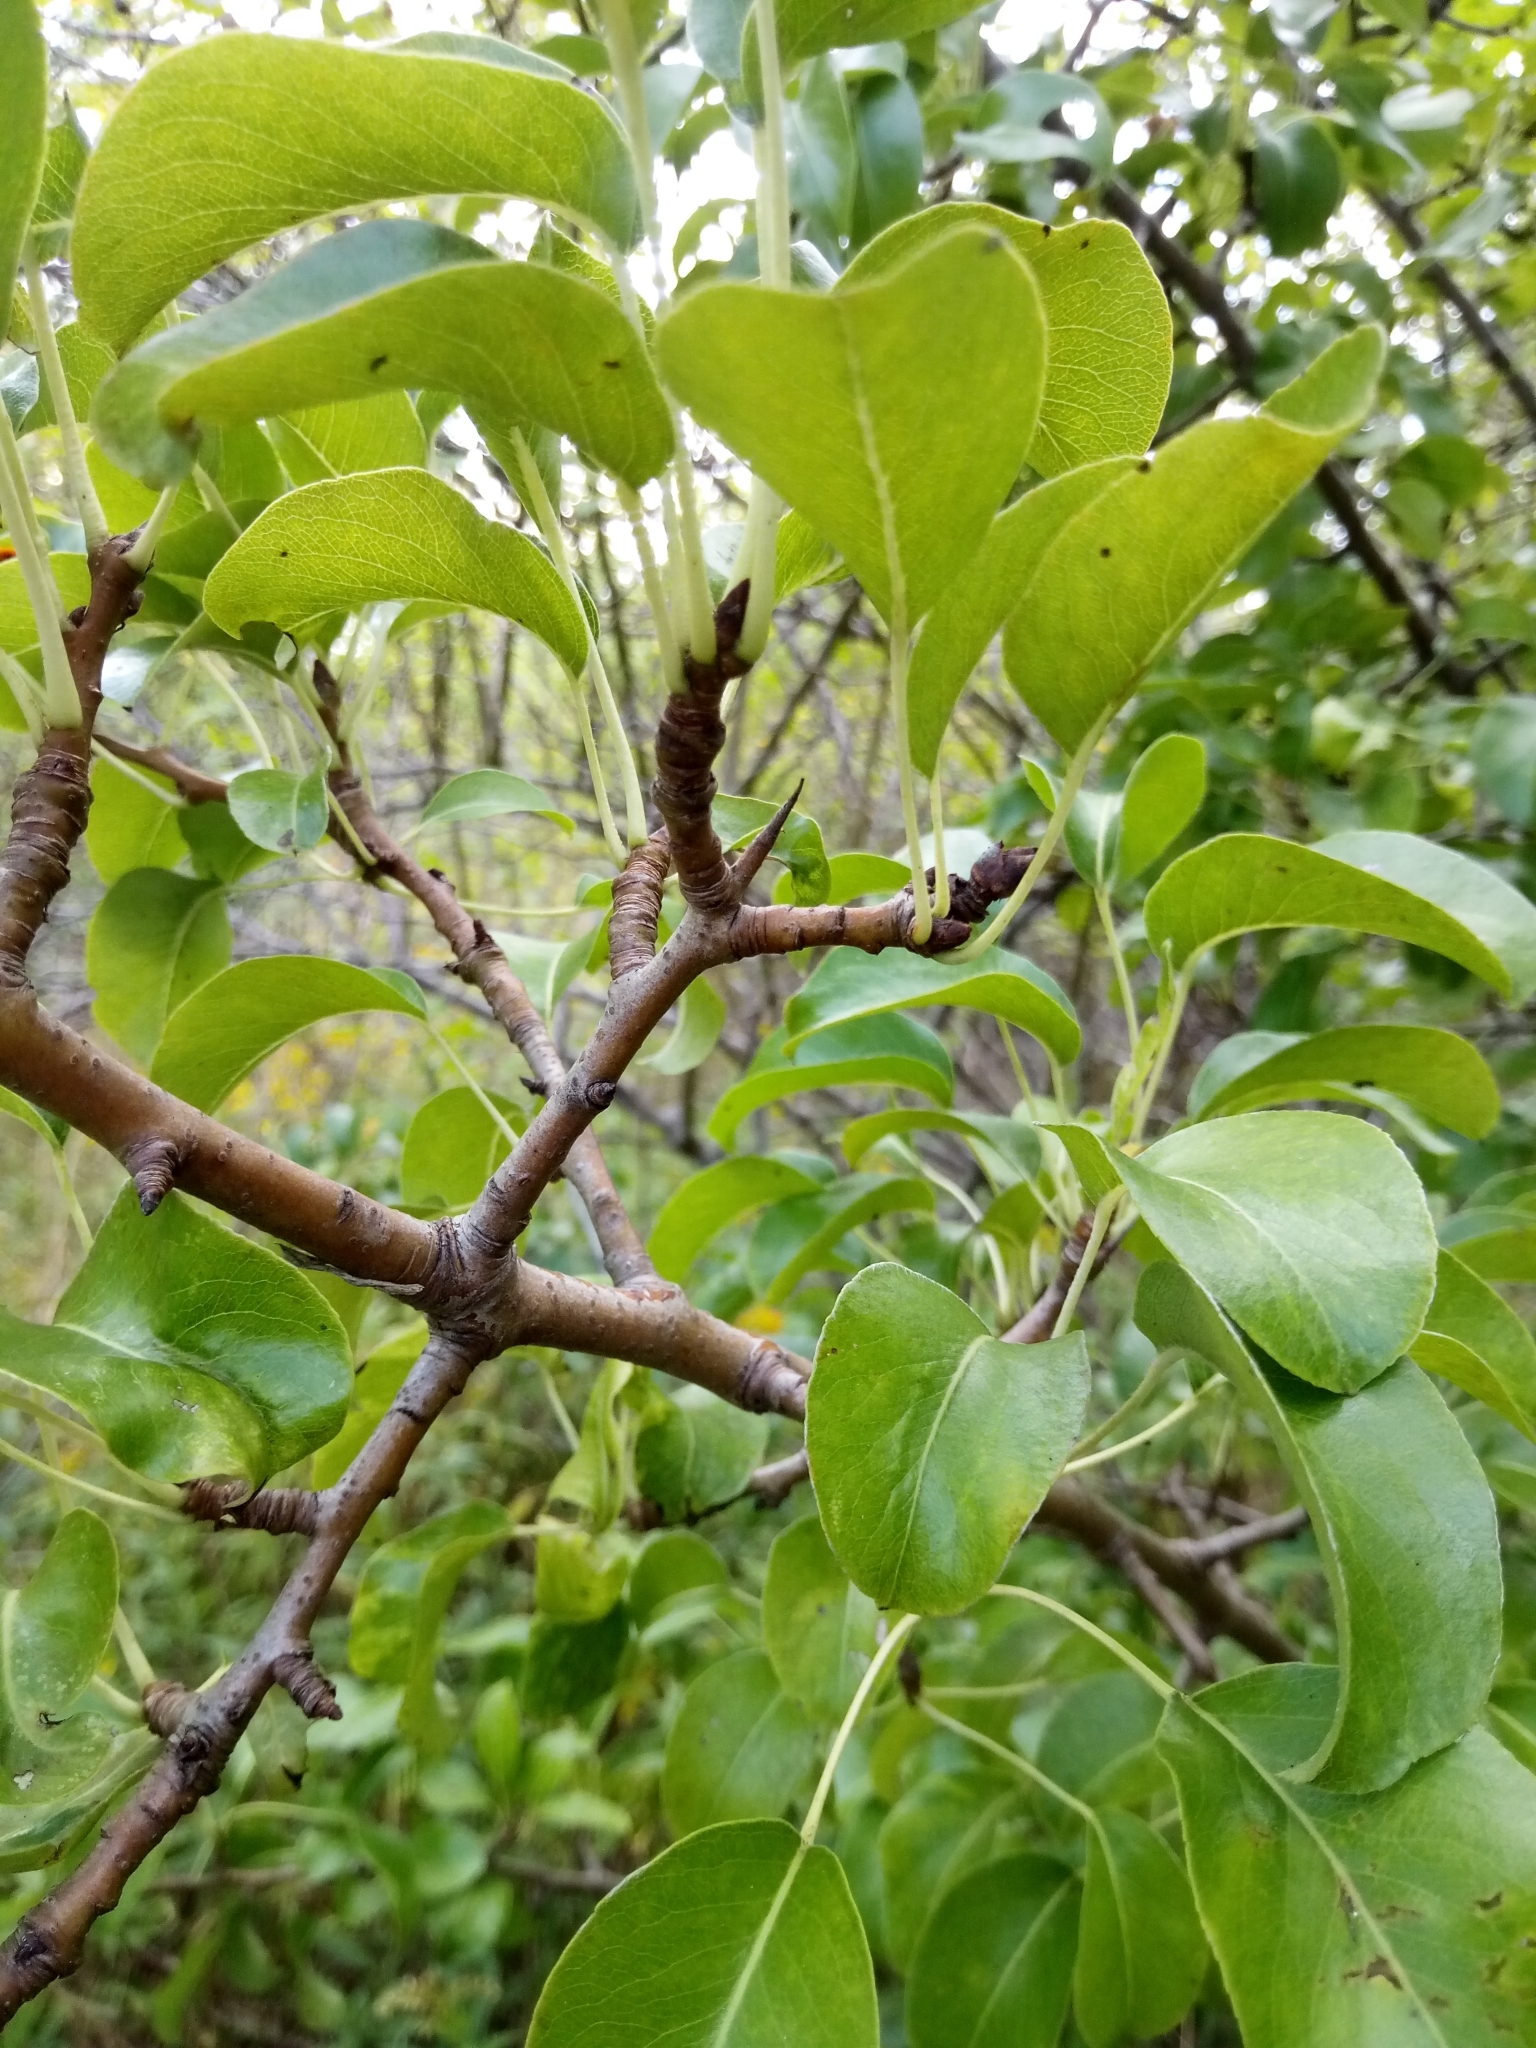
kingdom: Plantae
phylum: Tracheophyta
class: Magnoliopsida
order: Rosales
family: Rosaceae
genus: Pyrus
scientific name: Pyrus communis
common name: Pear
